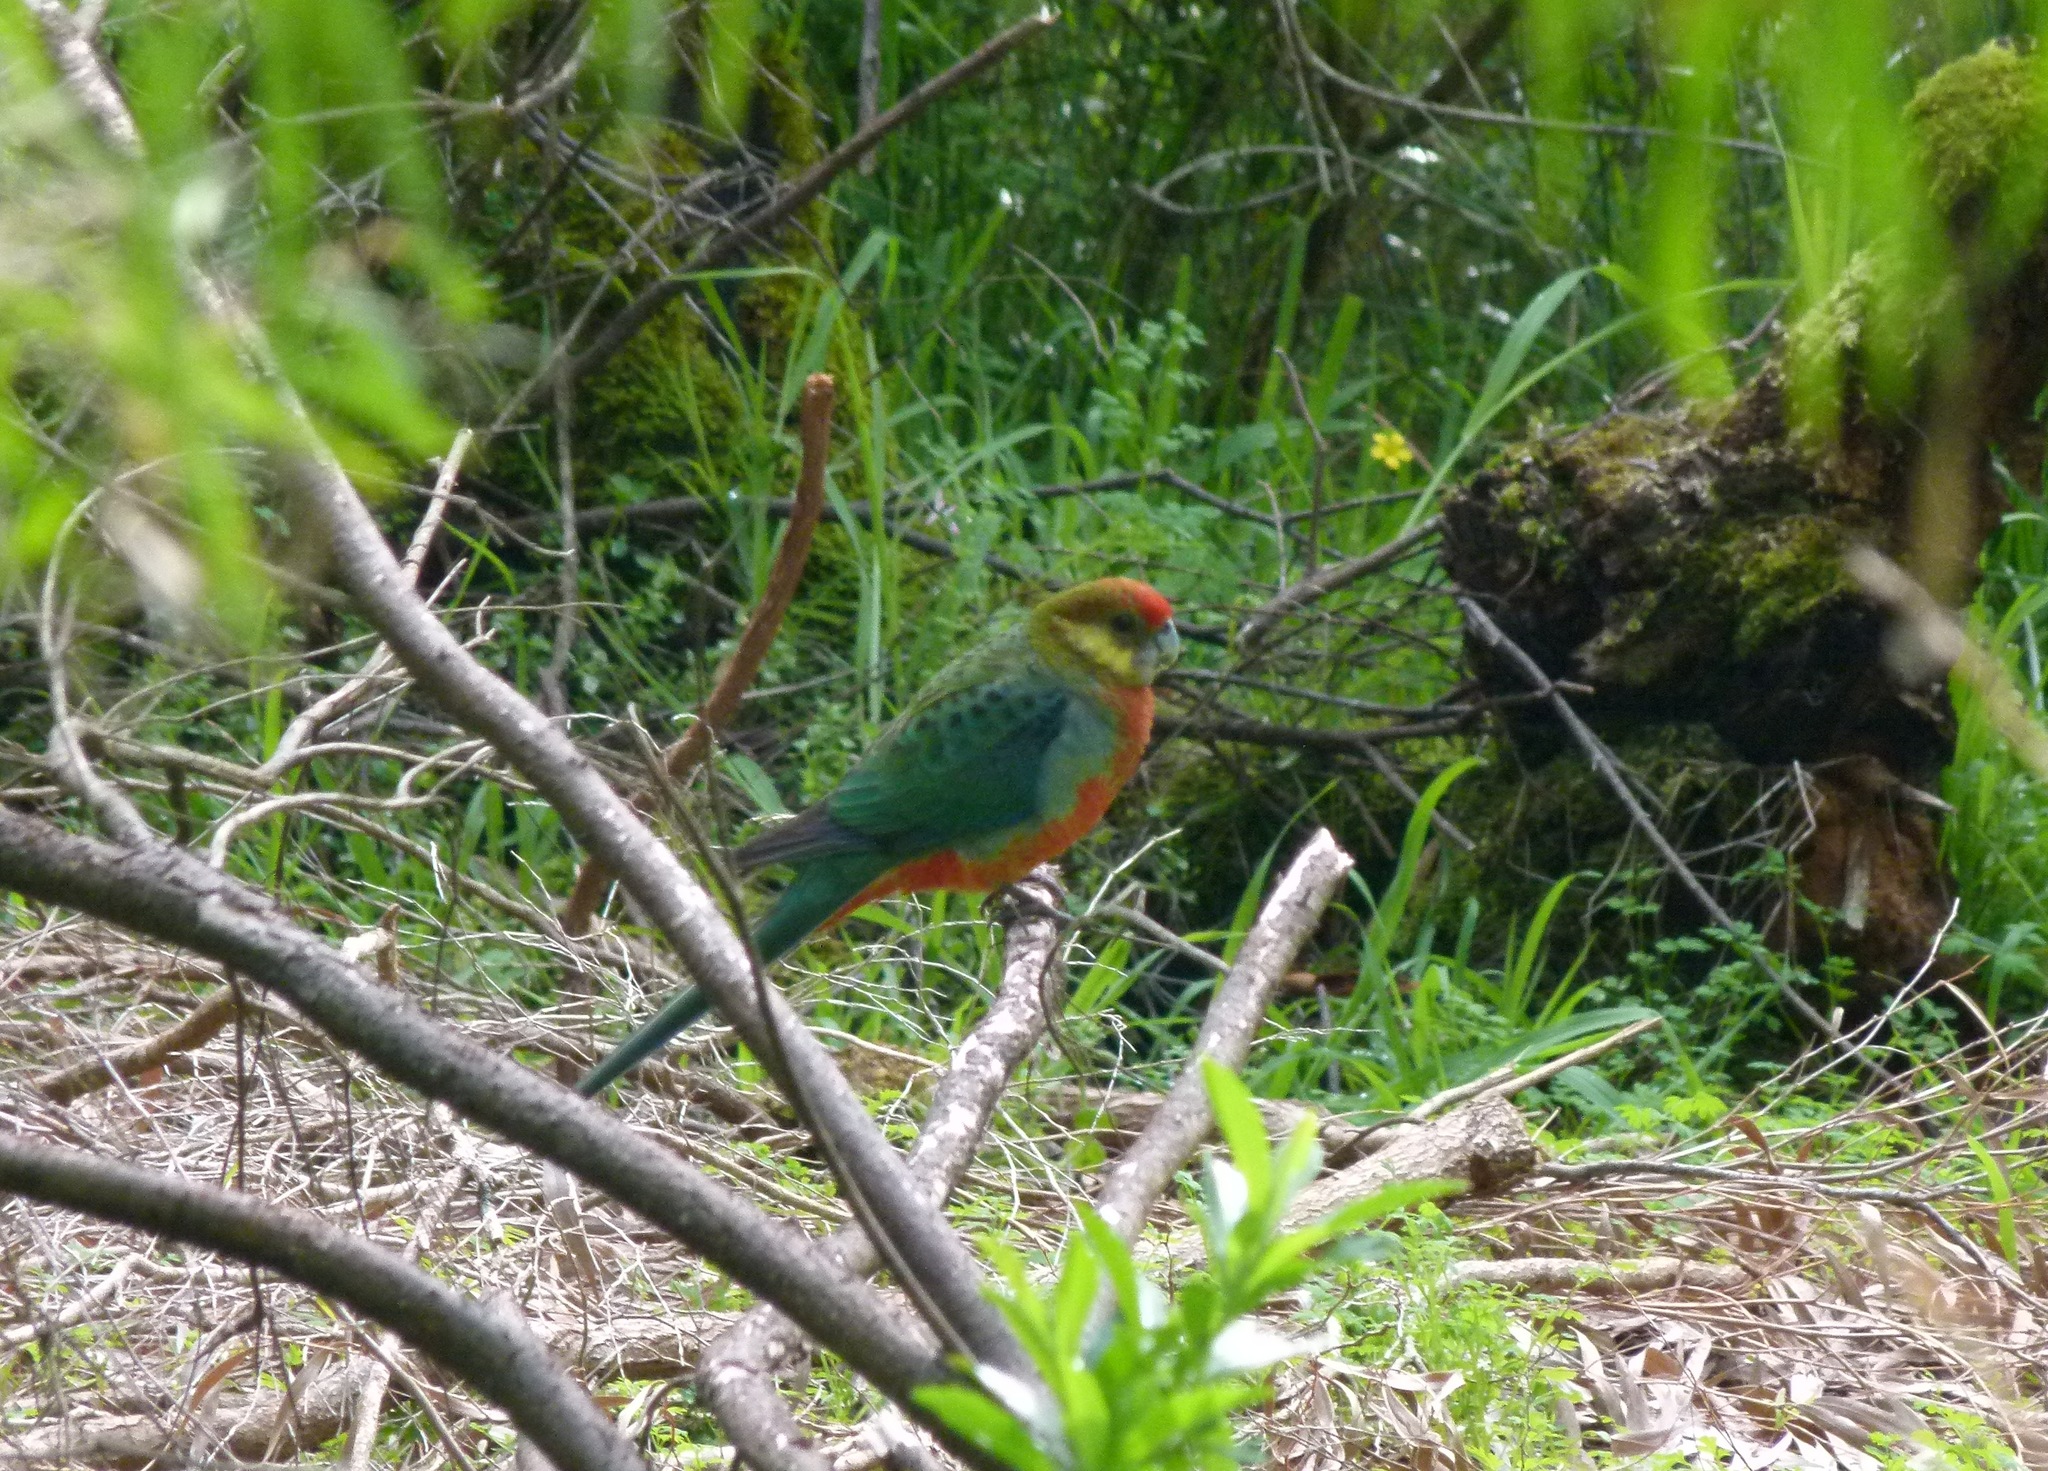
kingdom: Animalia
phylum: Chordata
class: Aves
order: Psittaciformes
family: Psittacidae
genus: Platycercus
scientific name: Platycercus icterotis
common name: Western rosella
